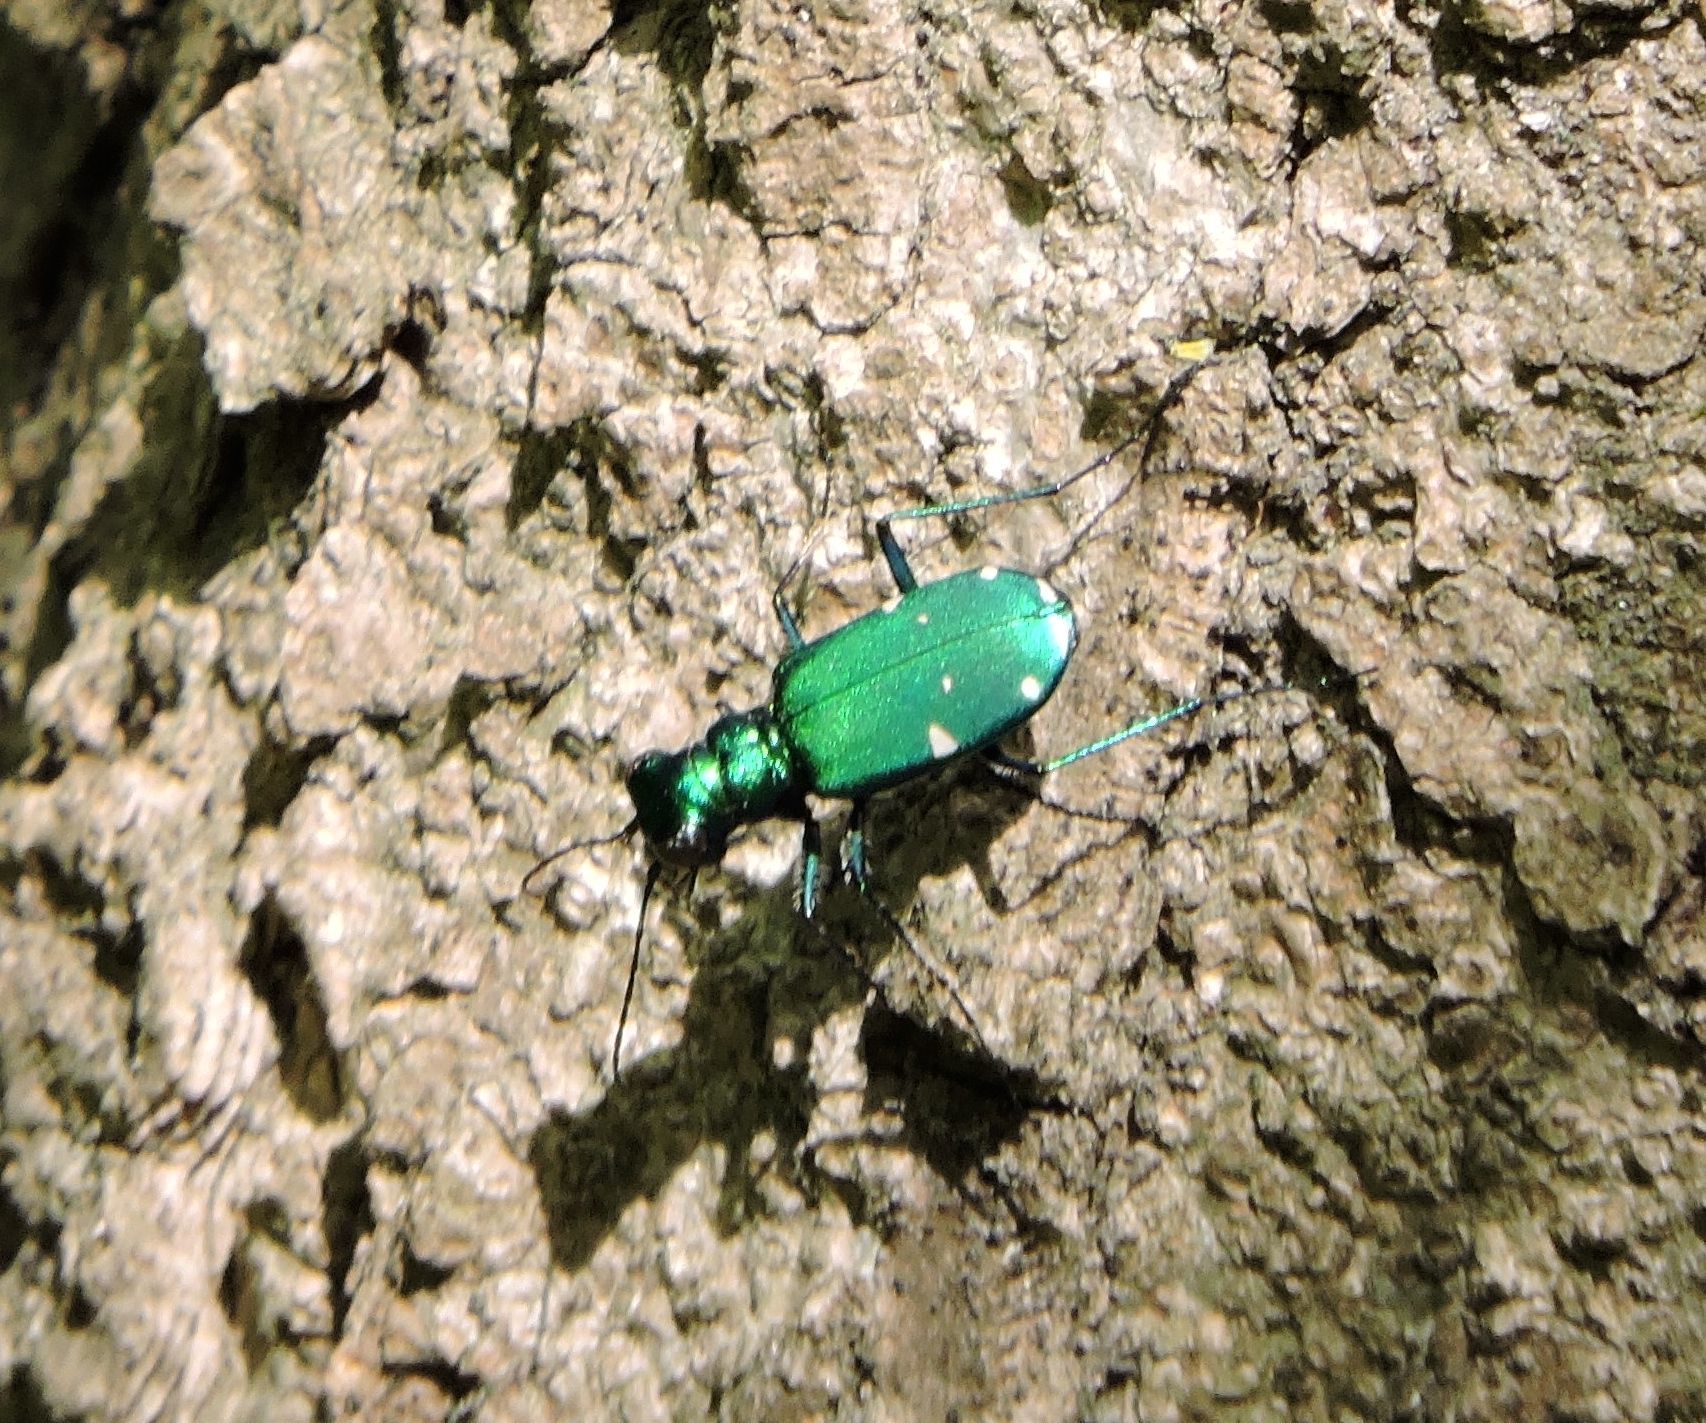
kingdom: Animalia
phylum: Arthropoda
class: Insecta
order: Coleoptera
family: Carabidae
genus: Cicindela
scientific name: Cicindela sexguttata
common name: Six-spotted tiger beetle
